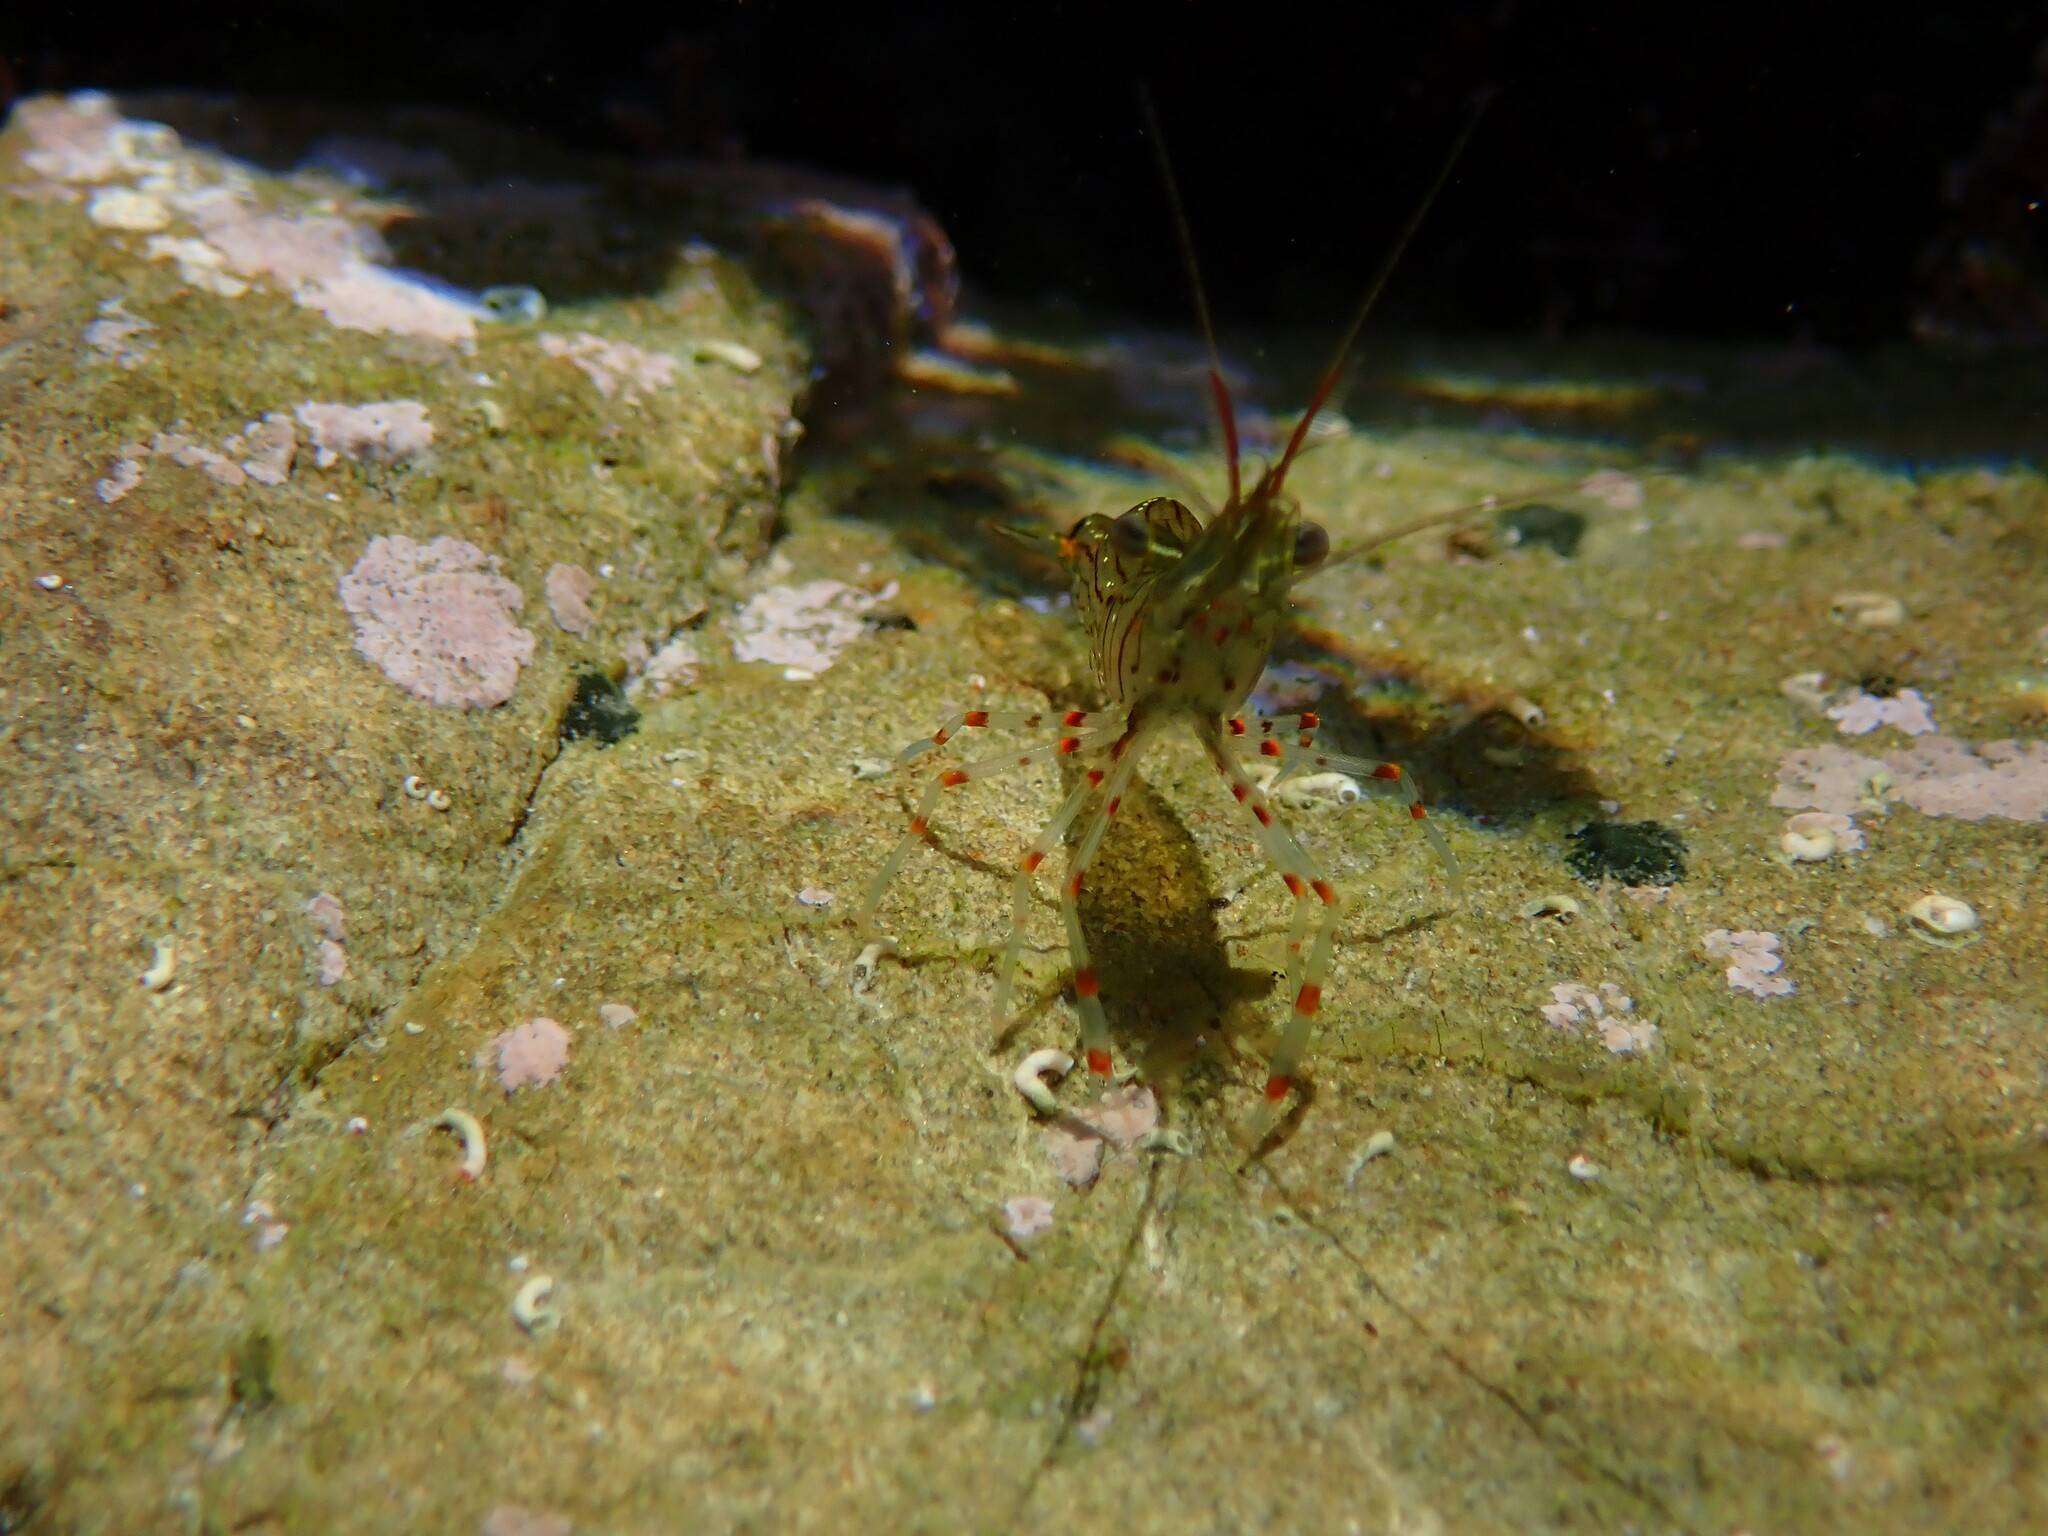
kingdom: Animalia
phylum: Arthropoda
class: Malacostraca
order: Decapoda
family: Palaemonidae
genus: Palaemon
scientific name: Palaemon affinis
